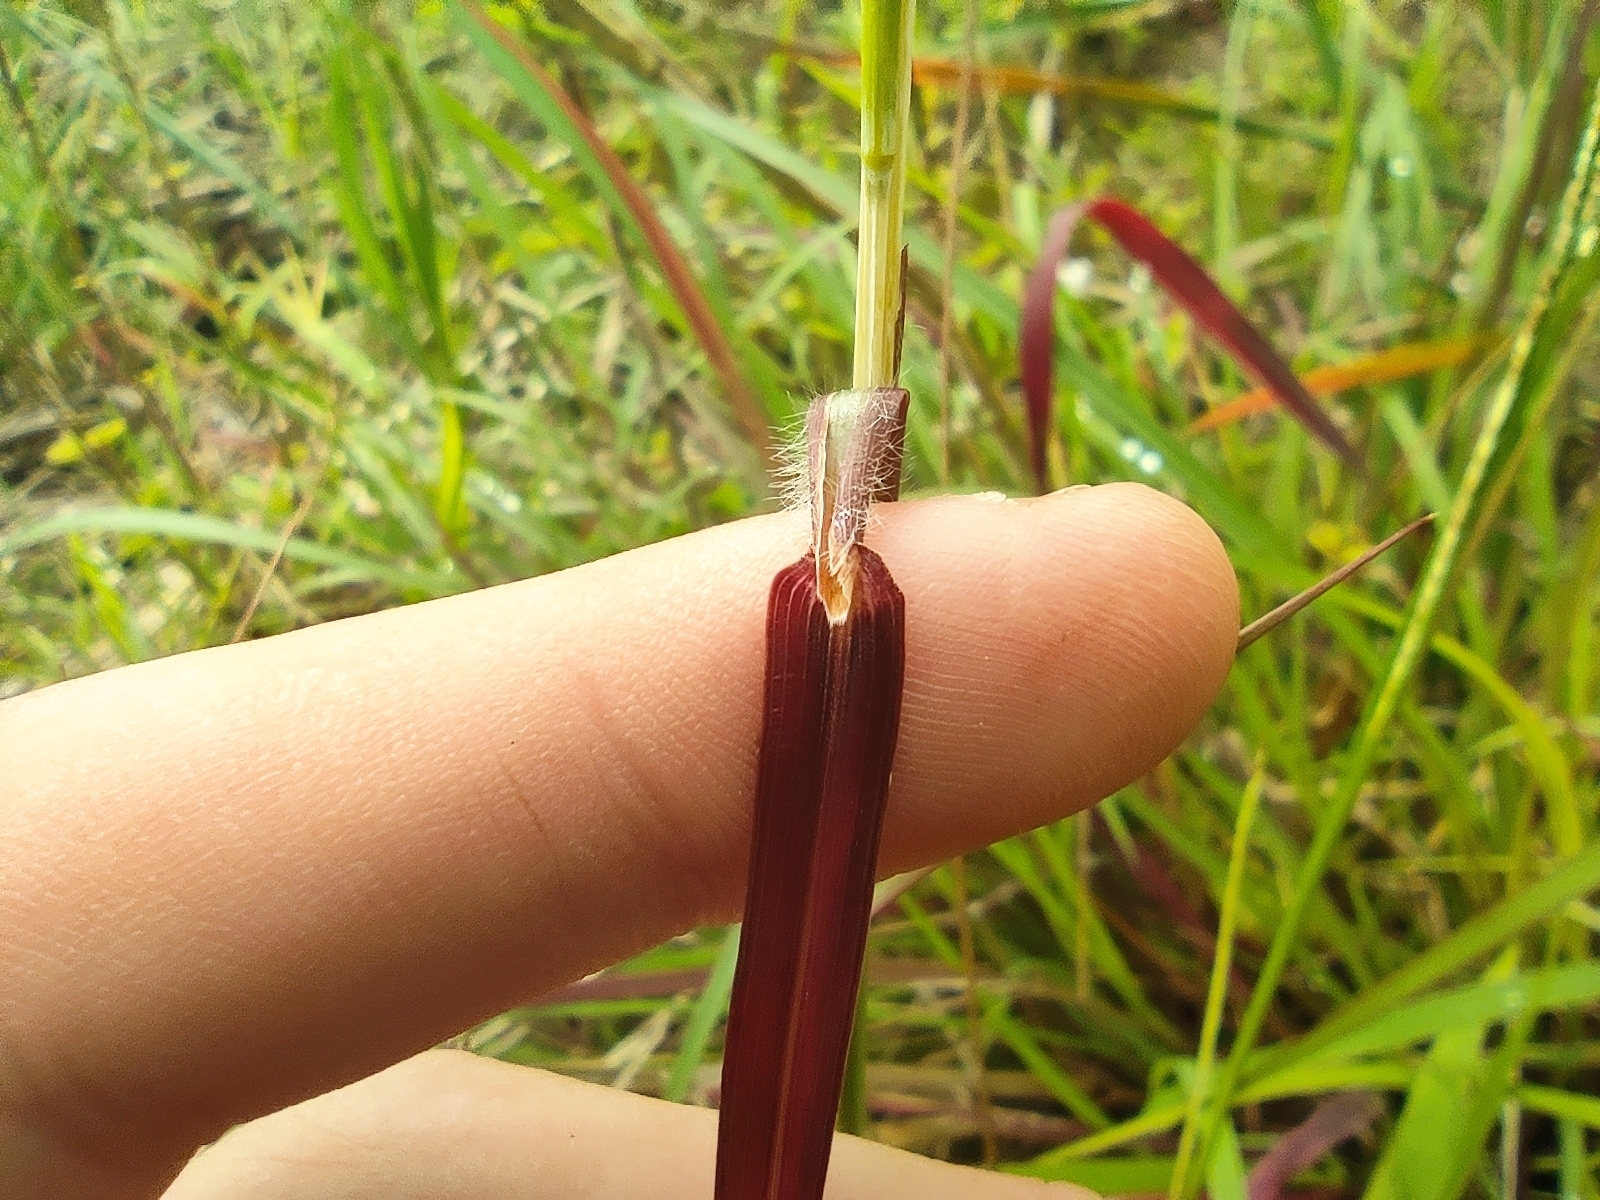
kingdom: Plantae
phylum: Tracheophyta
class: Liliopsida
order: Poales
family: Poaceae
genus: Hyparrhenia
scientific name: Hyparrhenia rufa
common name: Jaraguagrass
